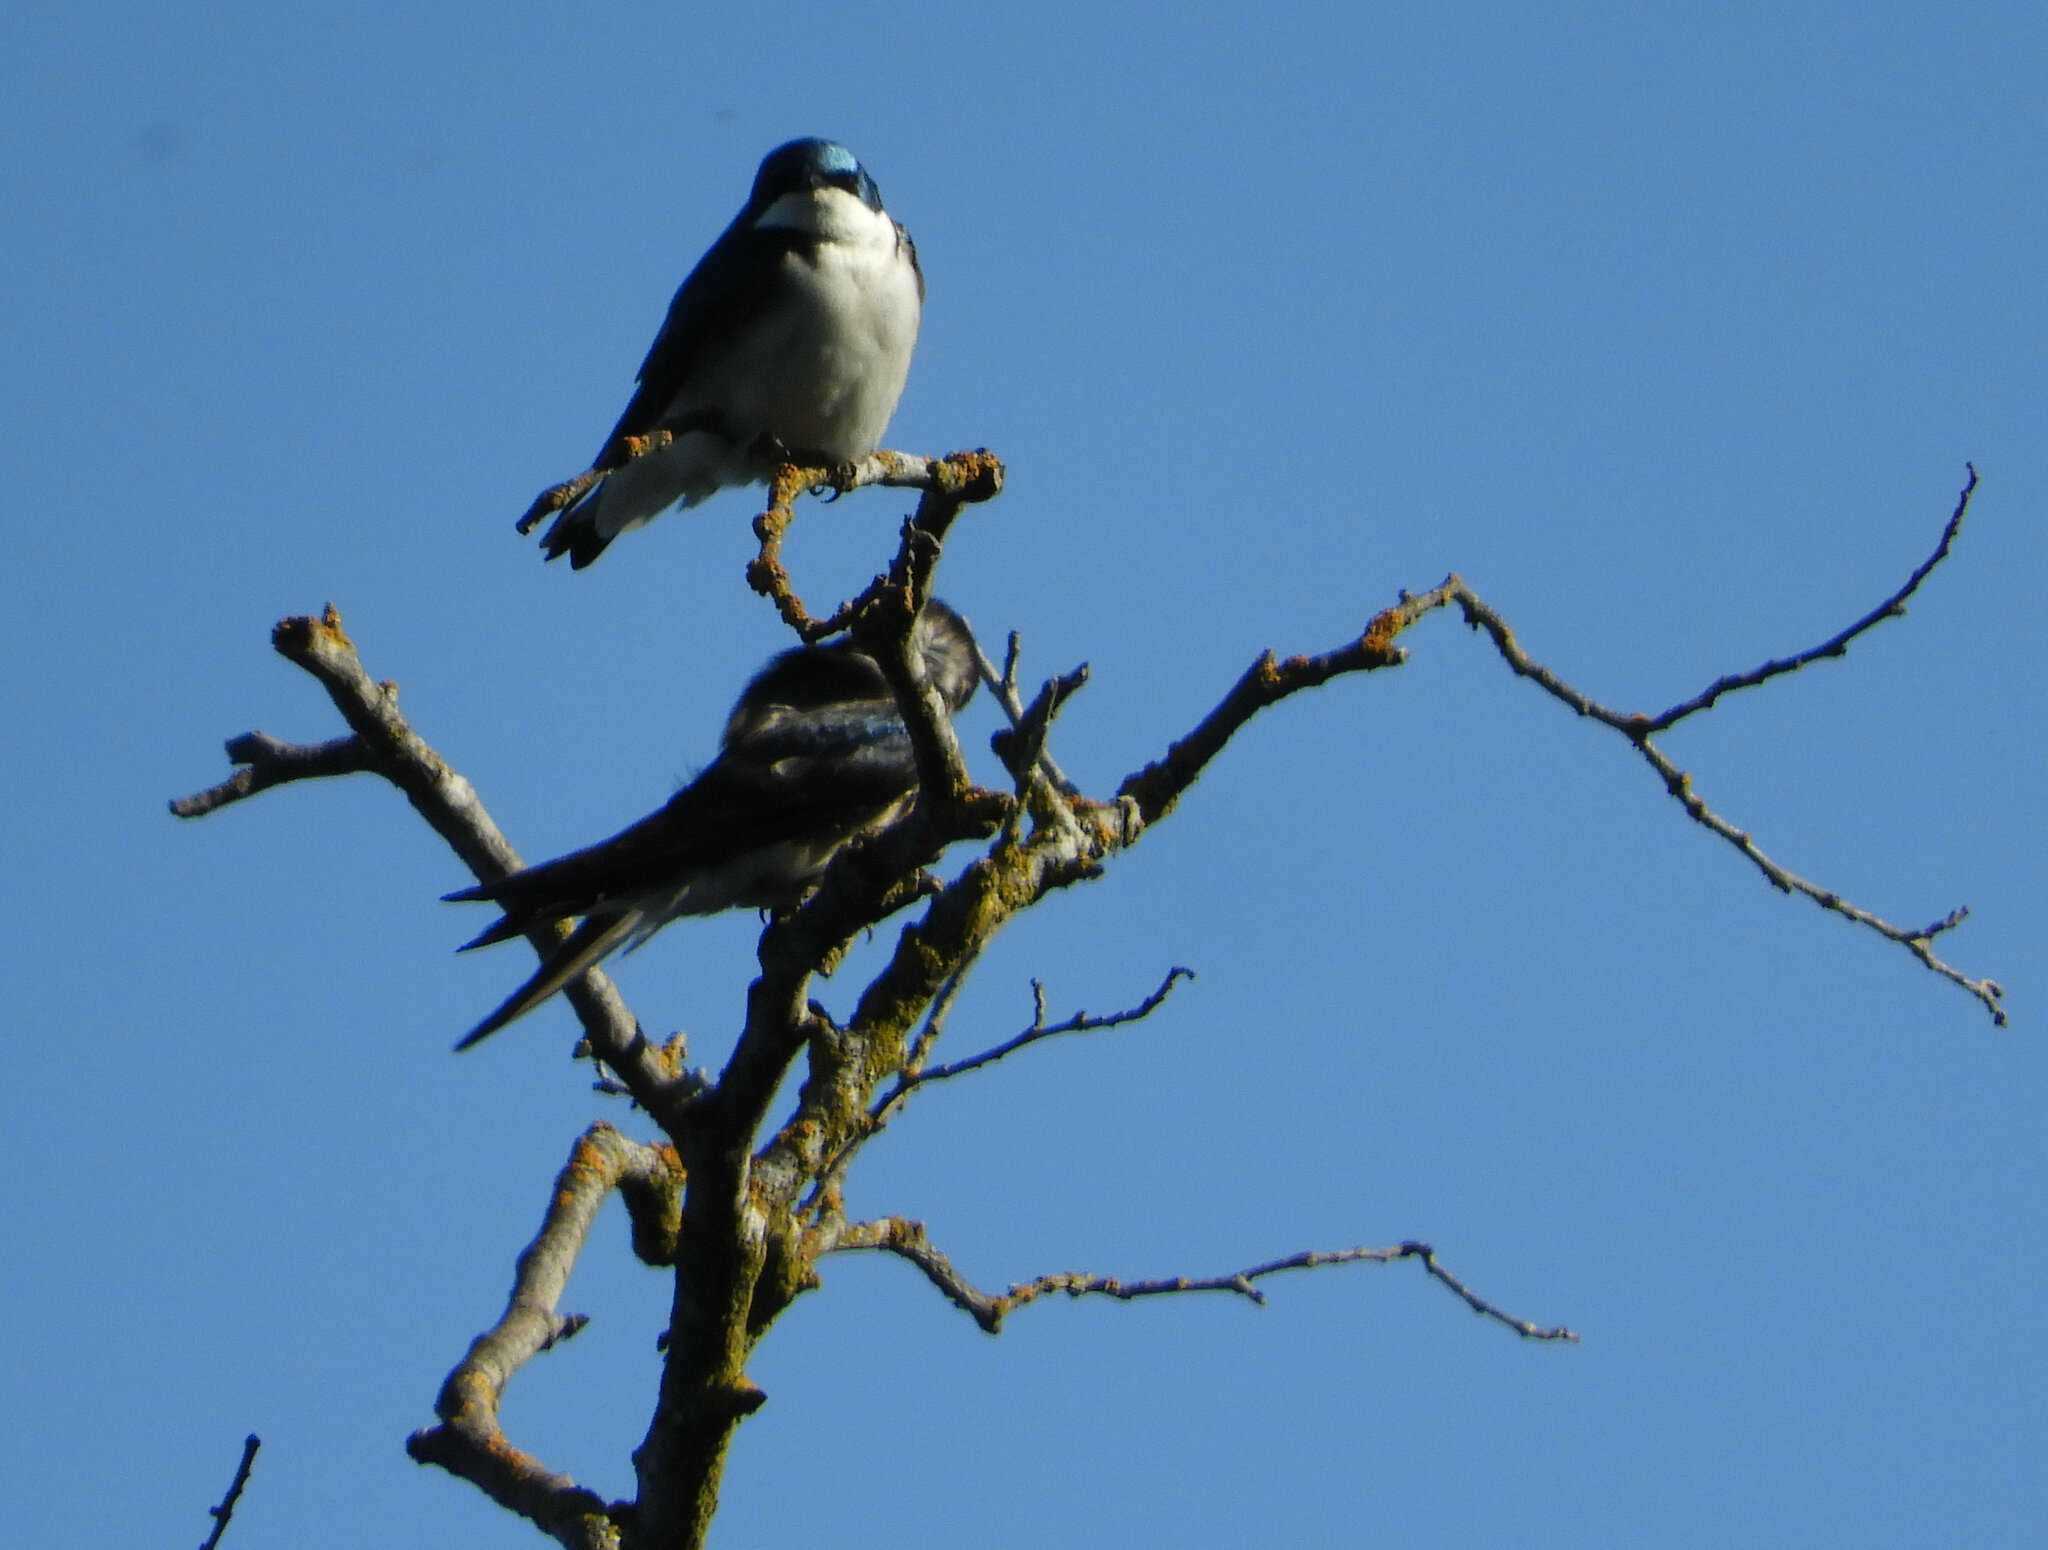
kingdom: Animalia
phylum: Chordata
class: Aves
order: Passeriformes
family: Hirundinidae
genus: Tachycineta
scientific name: Tachycineta bicolor
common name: Tree swallow
